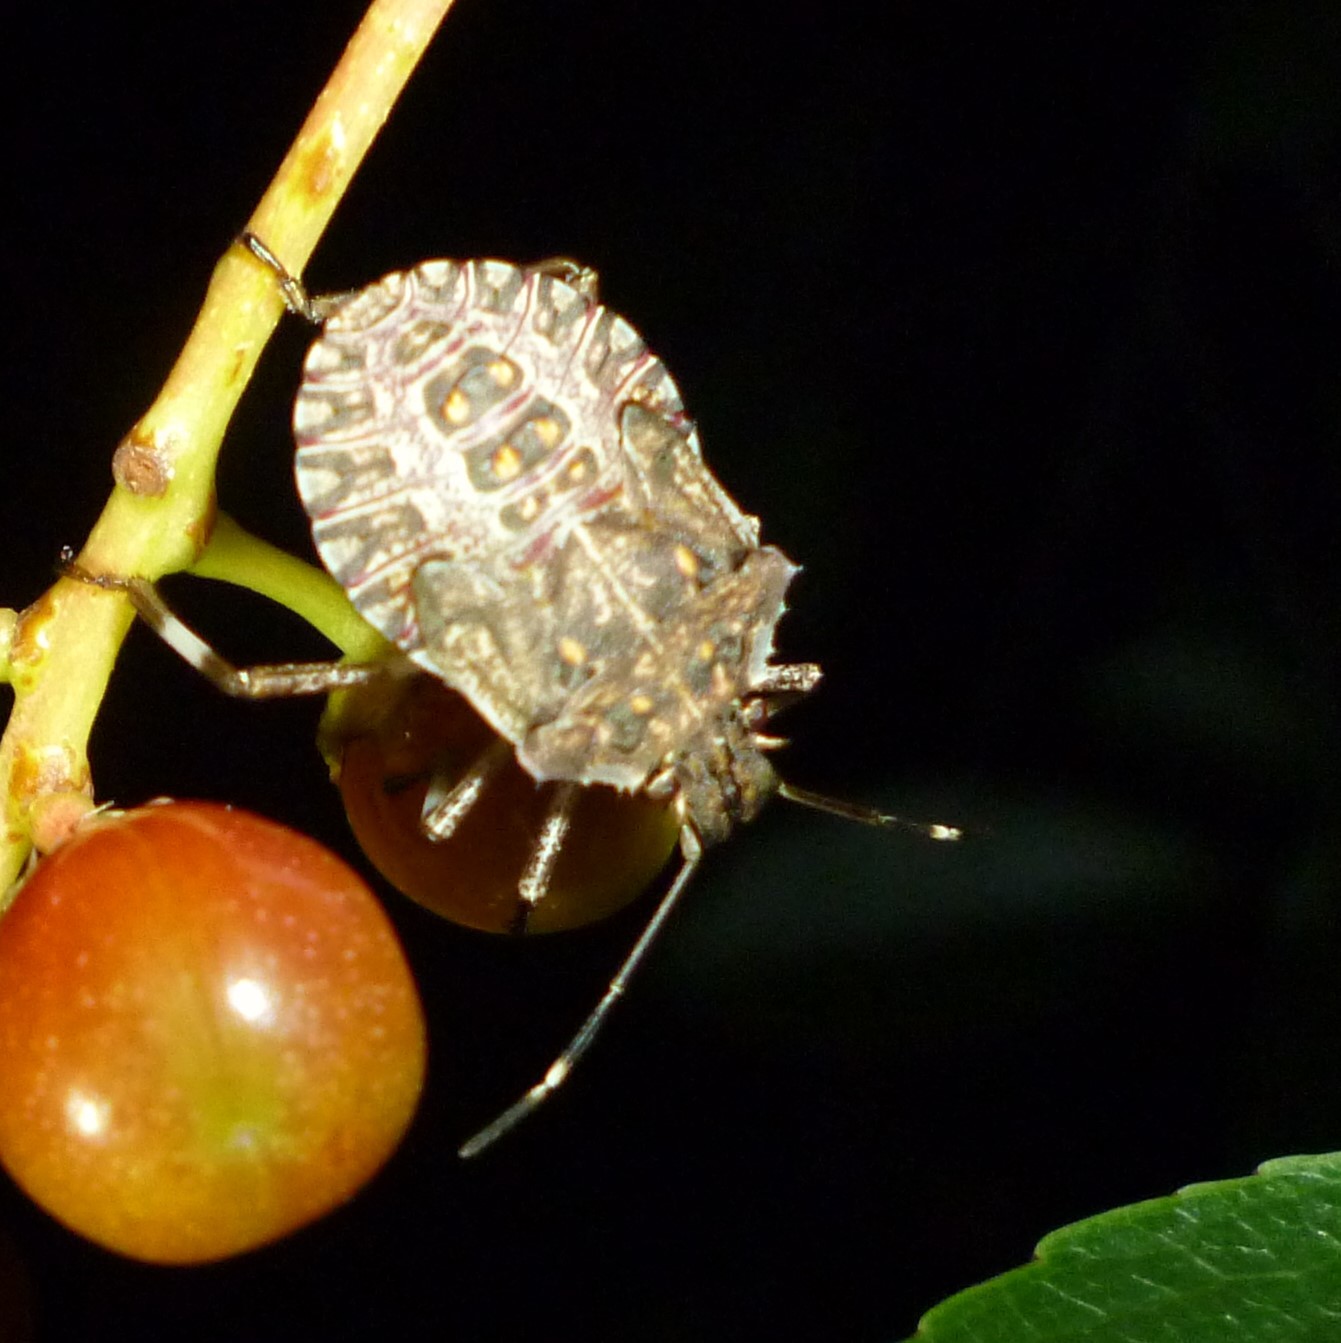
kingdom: Animalia
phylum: Arthropoda
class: Insecta
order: Hemiptera
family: Pentatomidae
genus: Halyomorpha
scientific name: Halyomorpha halys
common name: Brown marmorated stink bug
